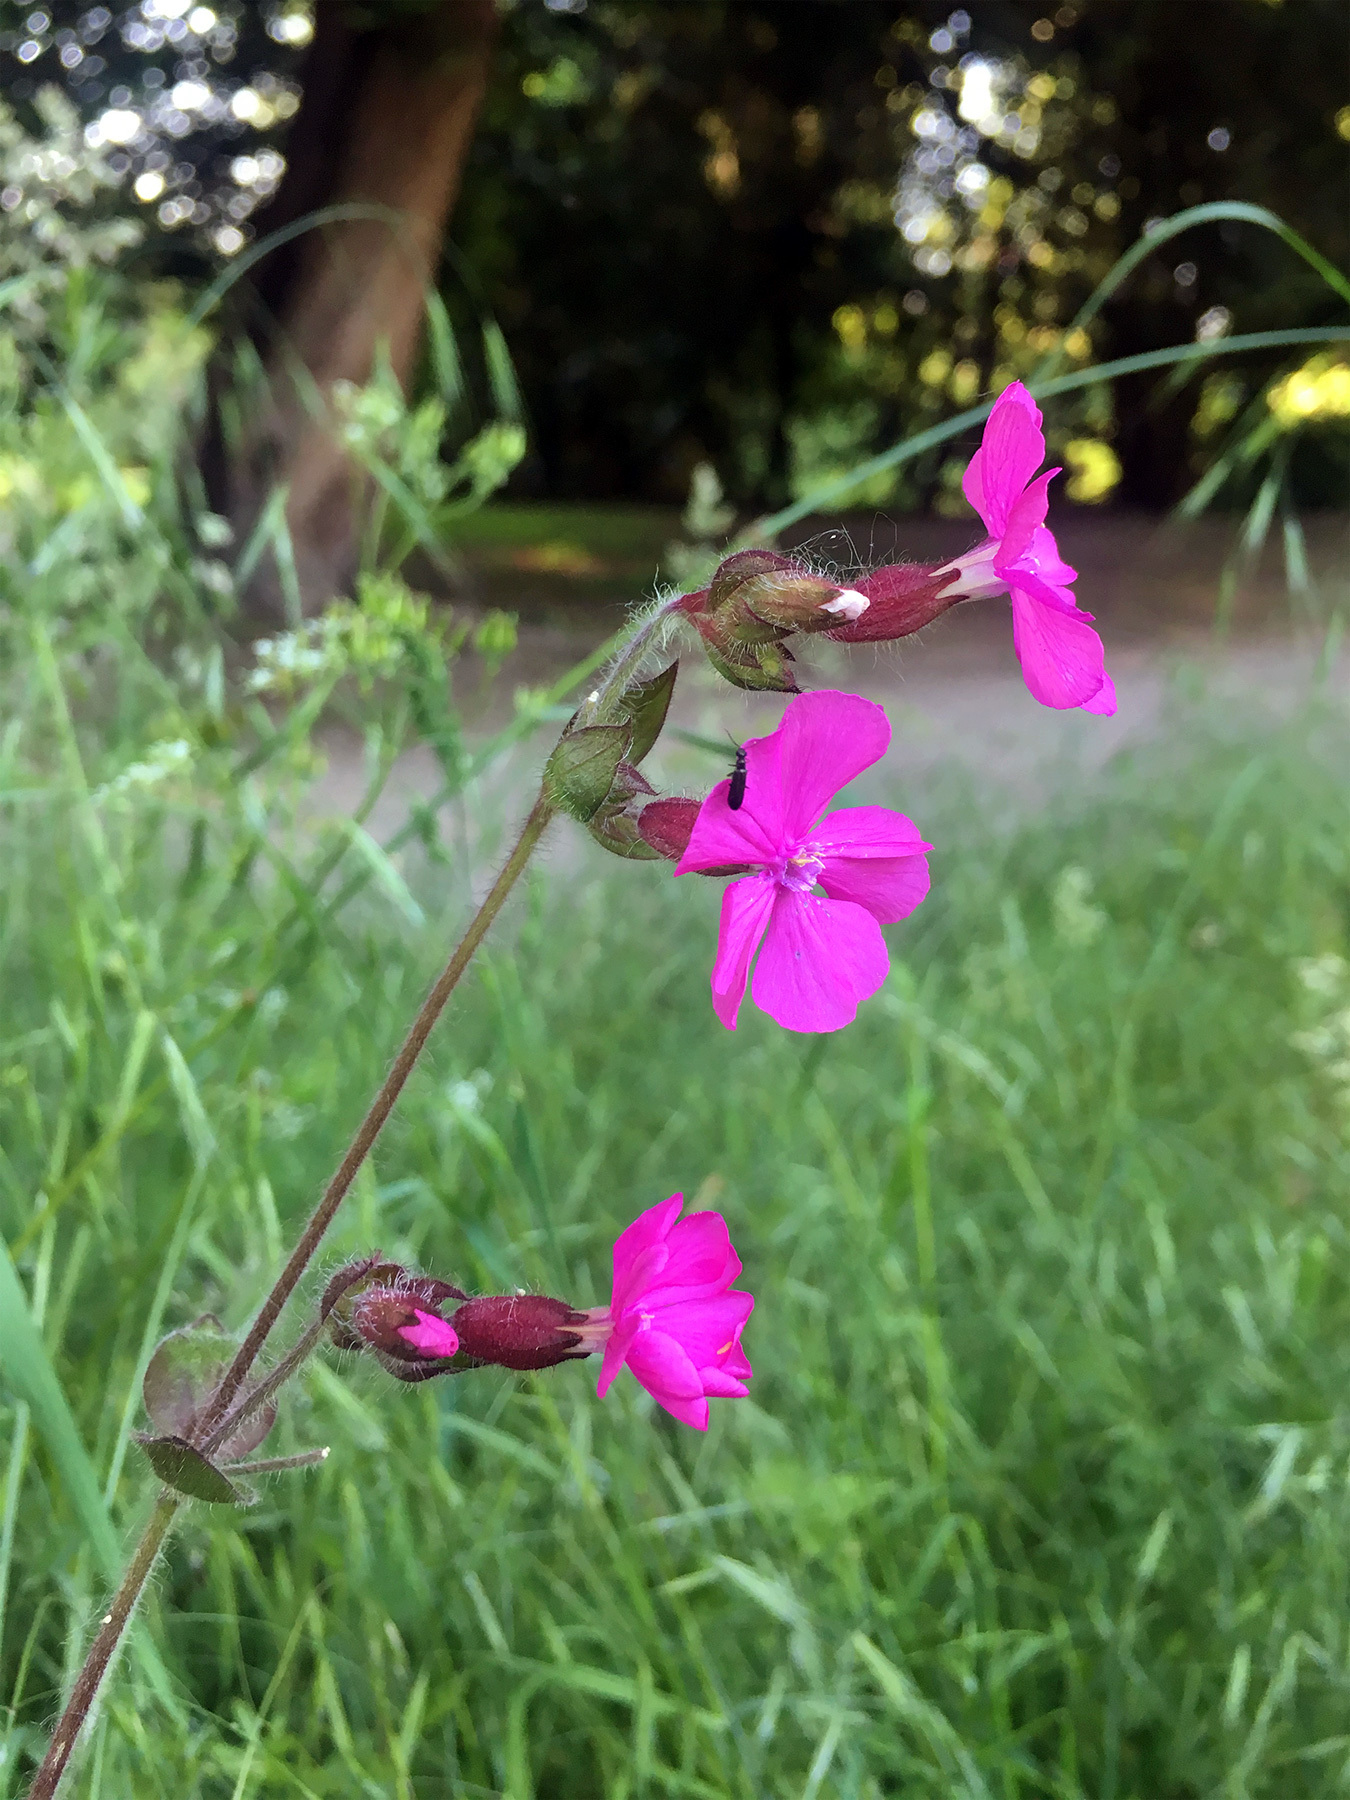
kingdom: Plantae
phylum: Tracheophyta
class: Magnoliopsida
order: Caryophyllales
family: Caryophyllaceae
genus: Silene
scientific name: Silene dioica
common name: Red campion
